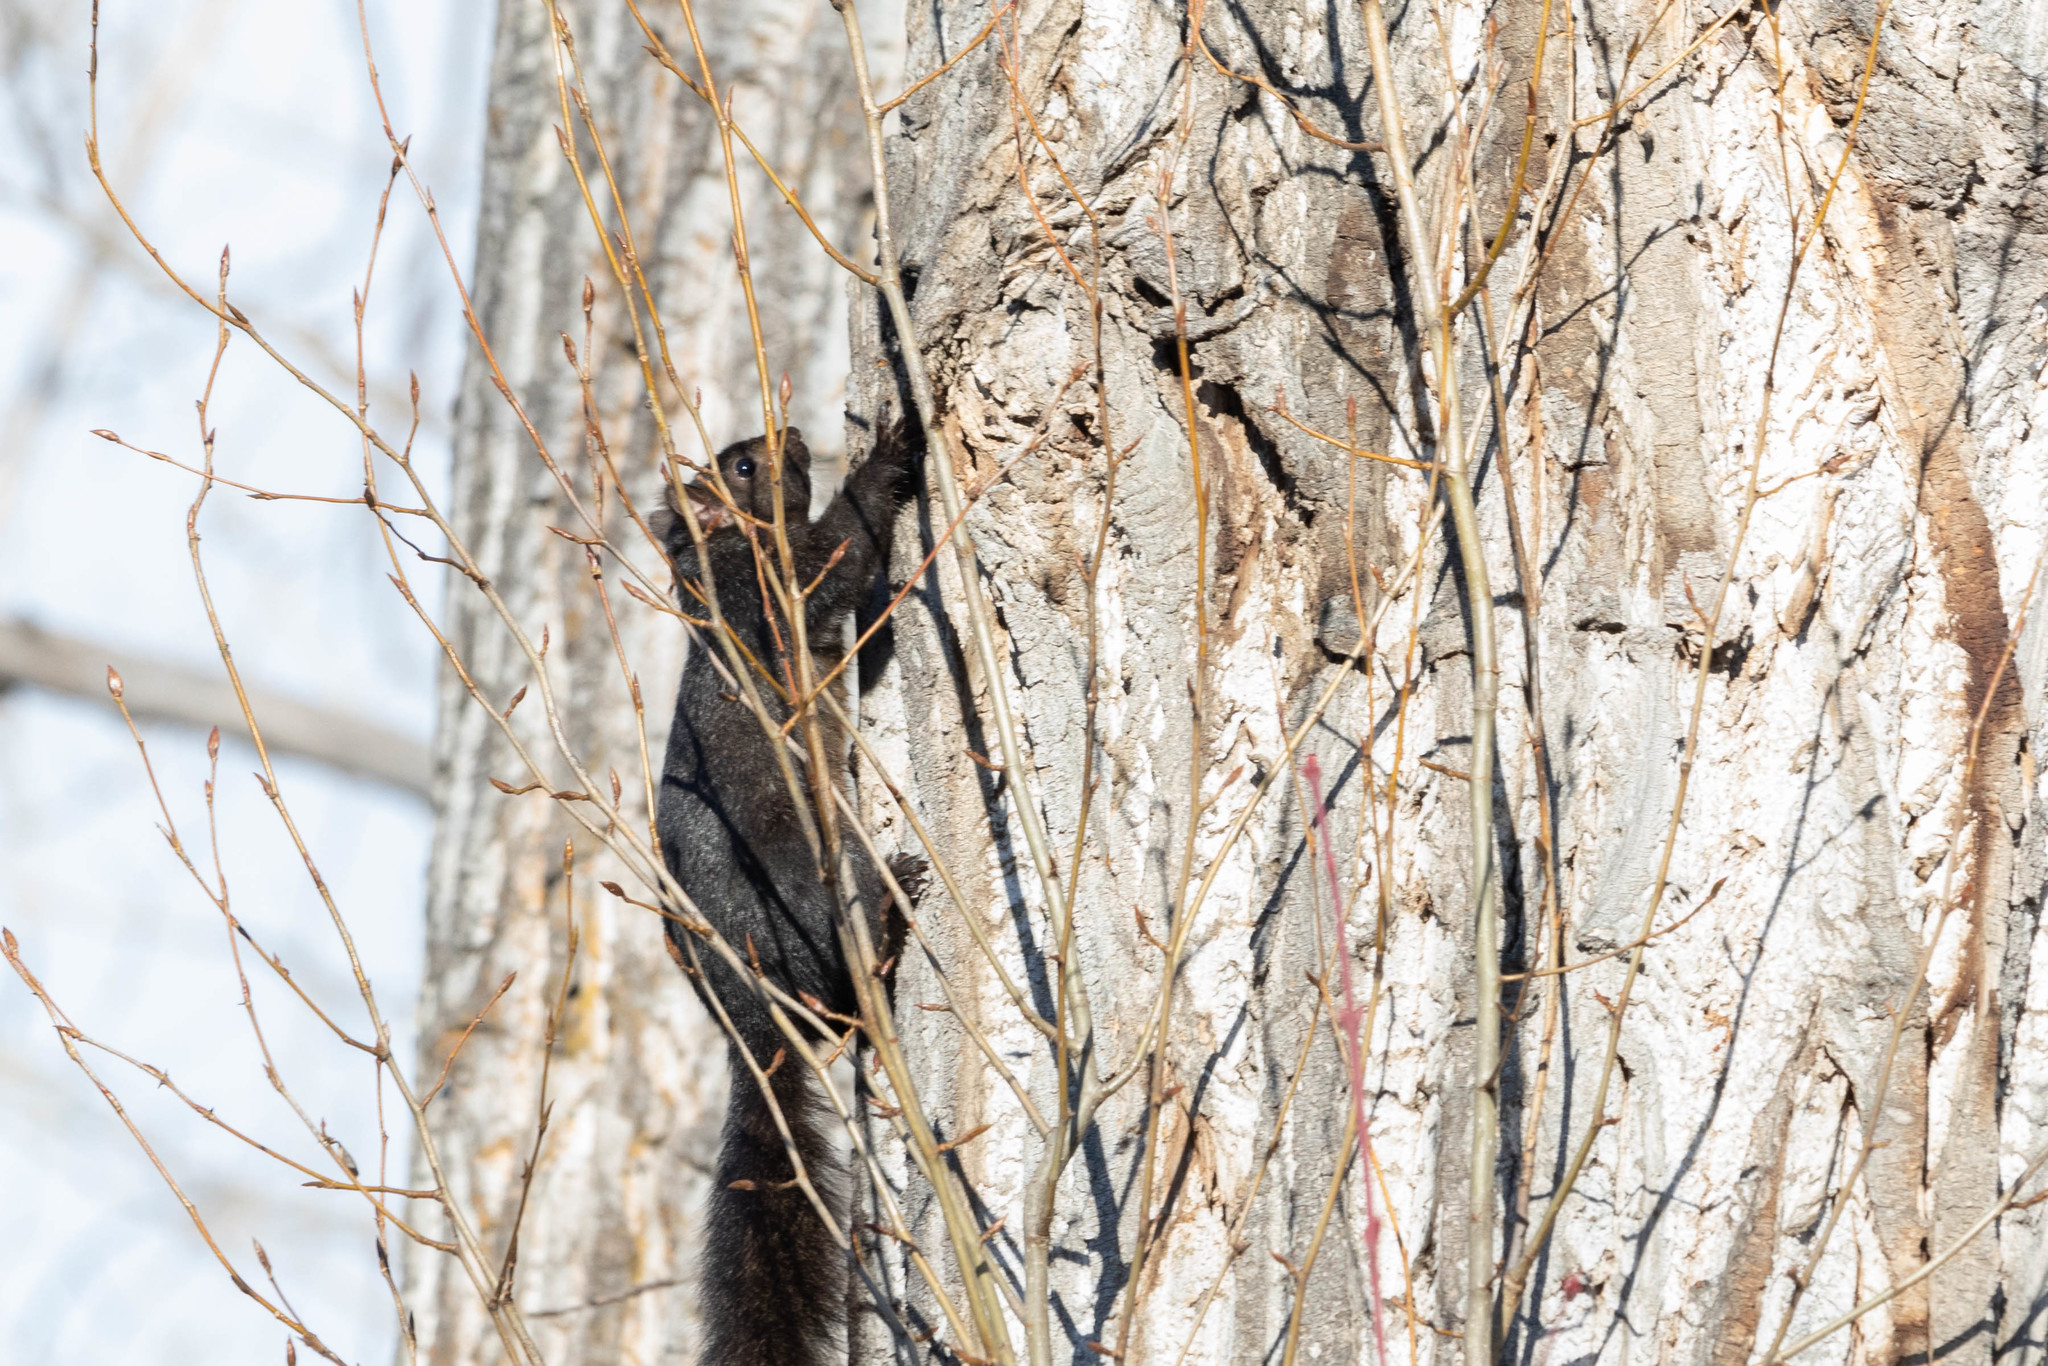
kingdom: Animalia
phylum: Chordata
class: Mammalia
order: Rodentia
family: Sciuridae
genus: Sciurus
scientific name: Sciurus carolinensis
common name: Eastern gray squirrel
